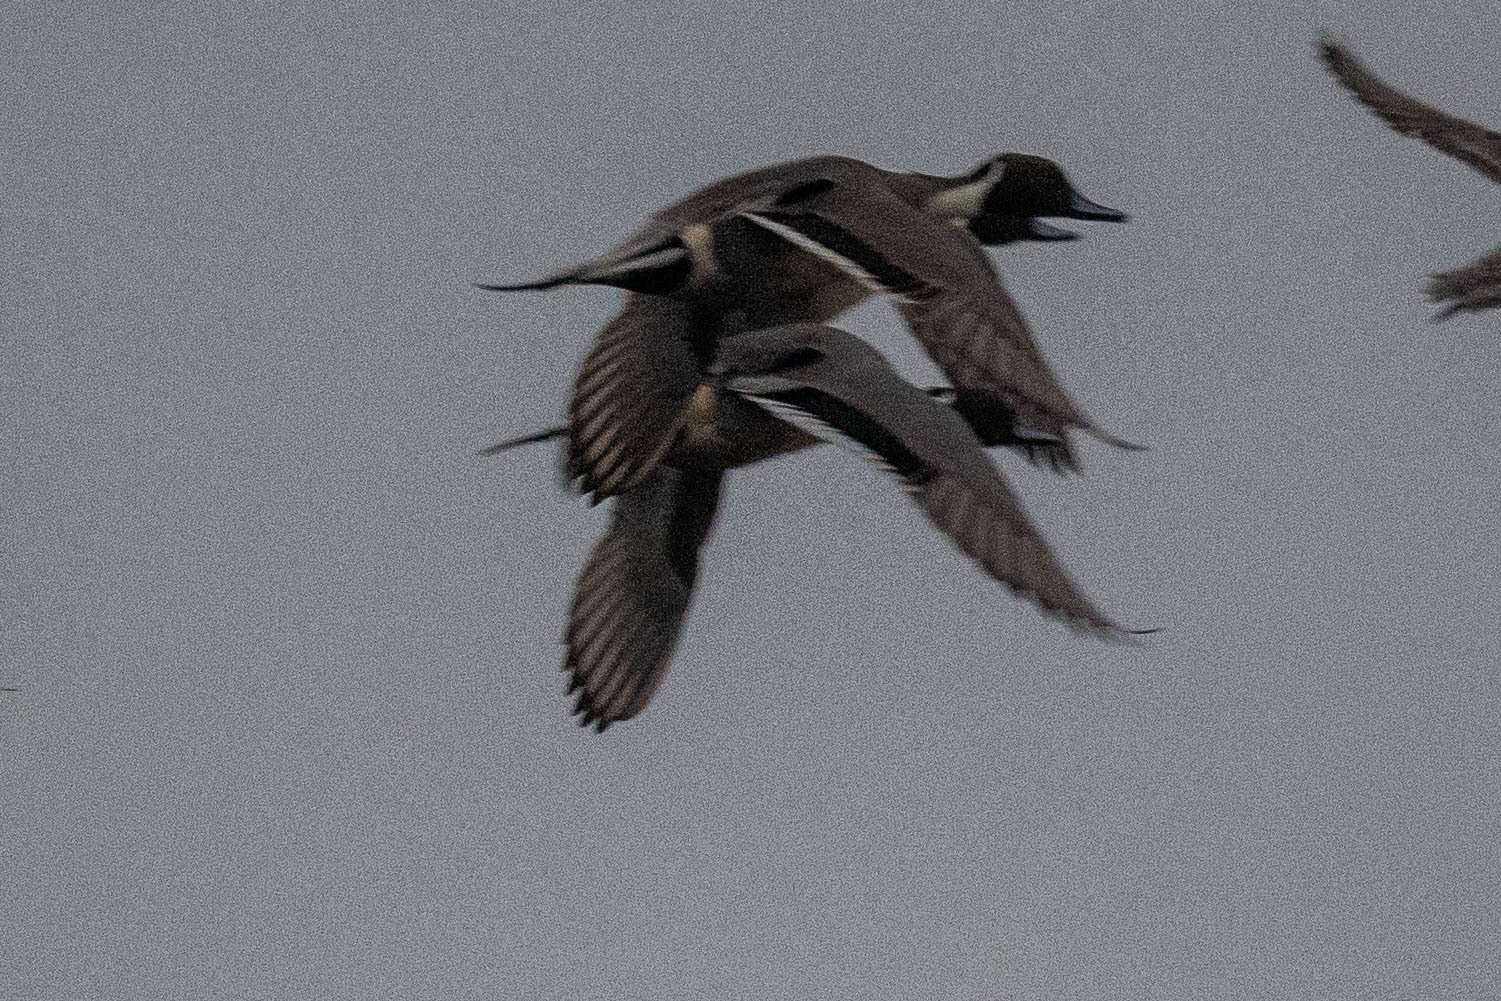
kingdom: Animalia
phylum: Chordata
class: Aves
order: Anseriformes
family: Anatidae
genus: Anas
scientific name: Anas acuta
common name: Northern pintail
